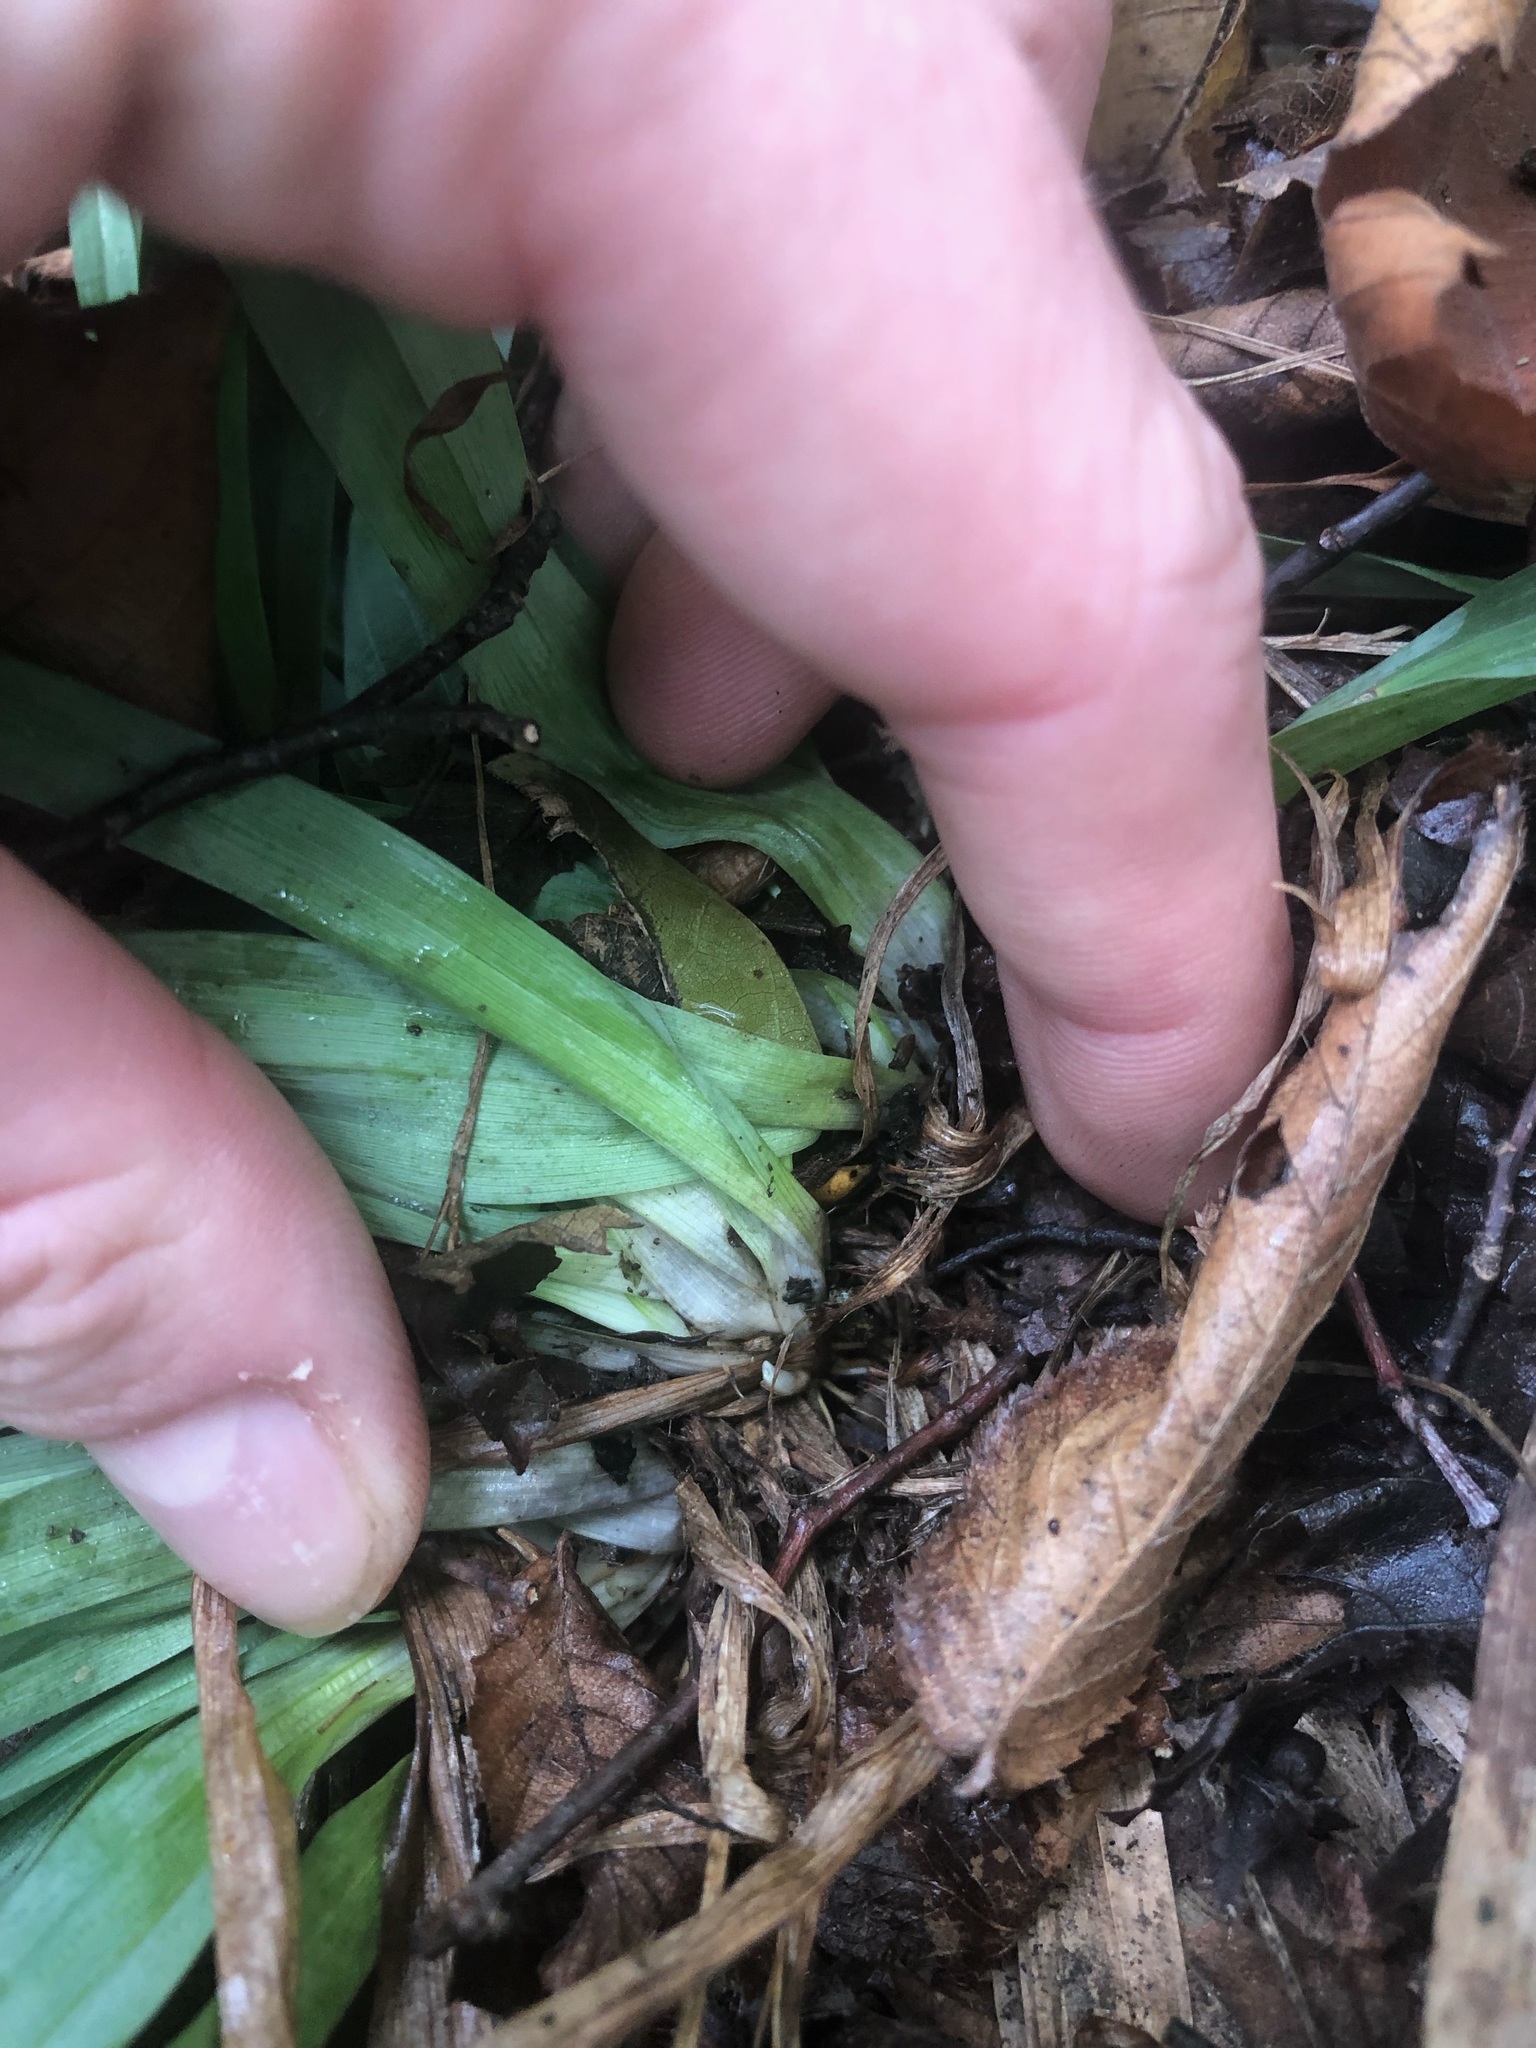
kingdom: Plantae
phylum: Tracheophyta
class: Liliopsida
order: Poales
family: Cyperaceae
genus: Carex
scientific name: Carex platyphylla
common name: Broad-leaved sedge
